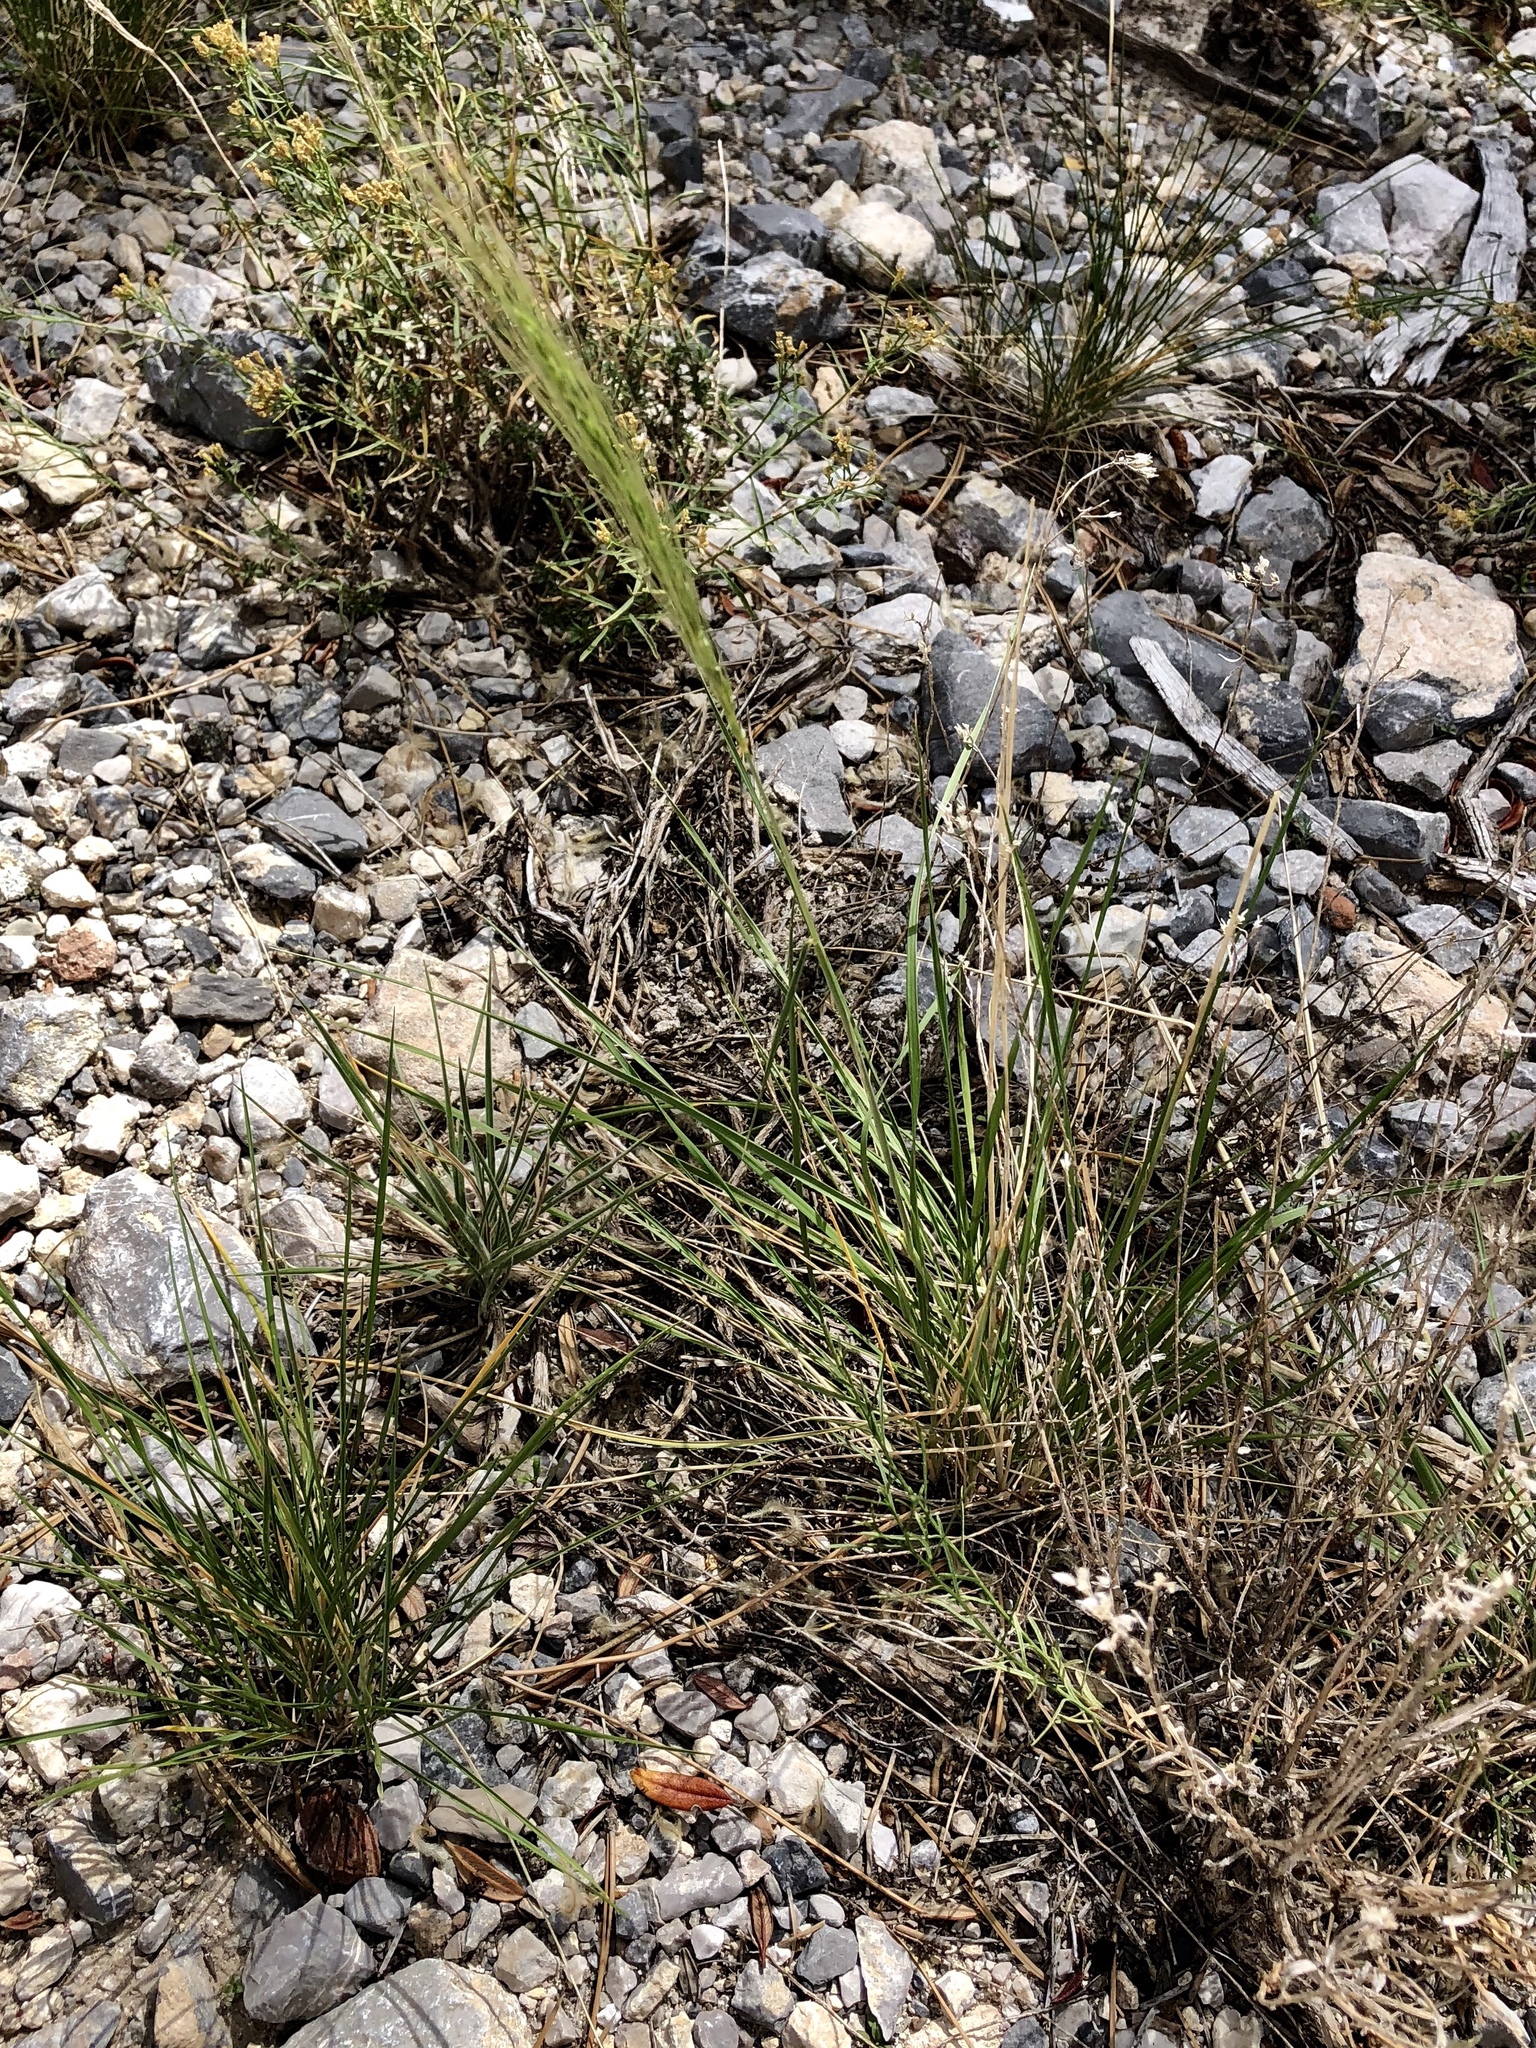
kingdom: Plantae
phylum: Tracheophyta
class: Liliopsida
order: Poales
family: Poaceae
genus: Elymus
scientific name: Elymus elymoides
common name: Bottlebrush squirreltail
